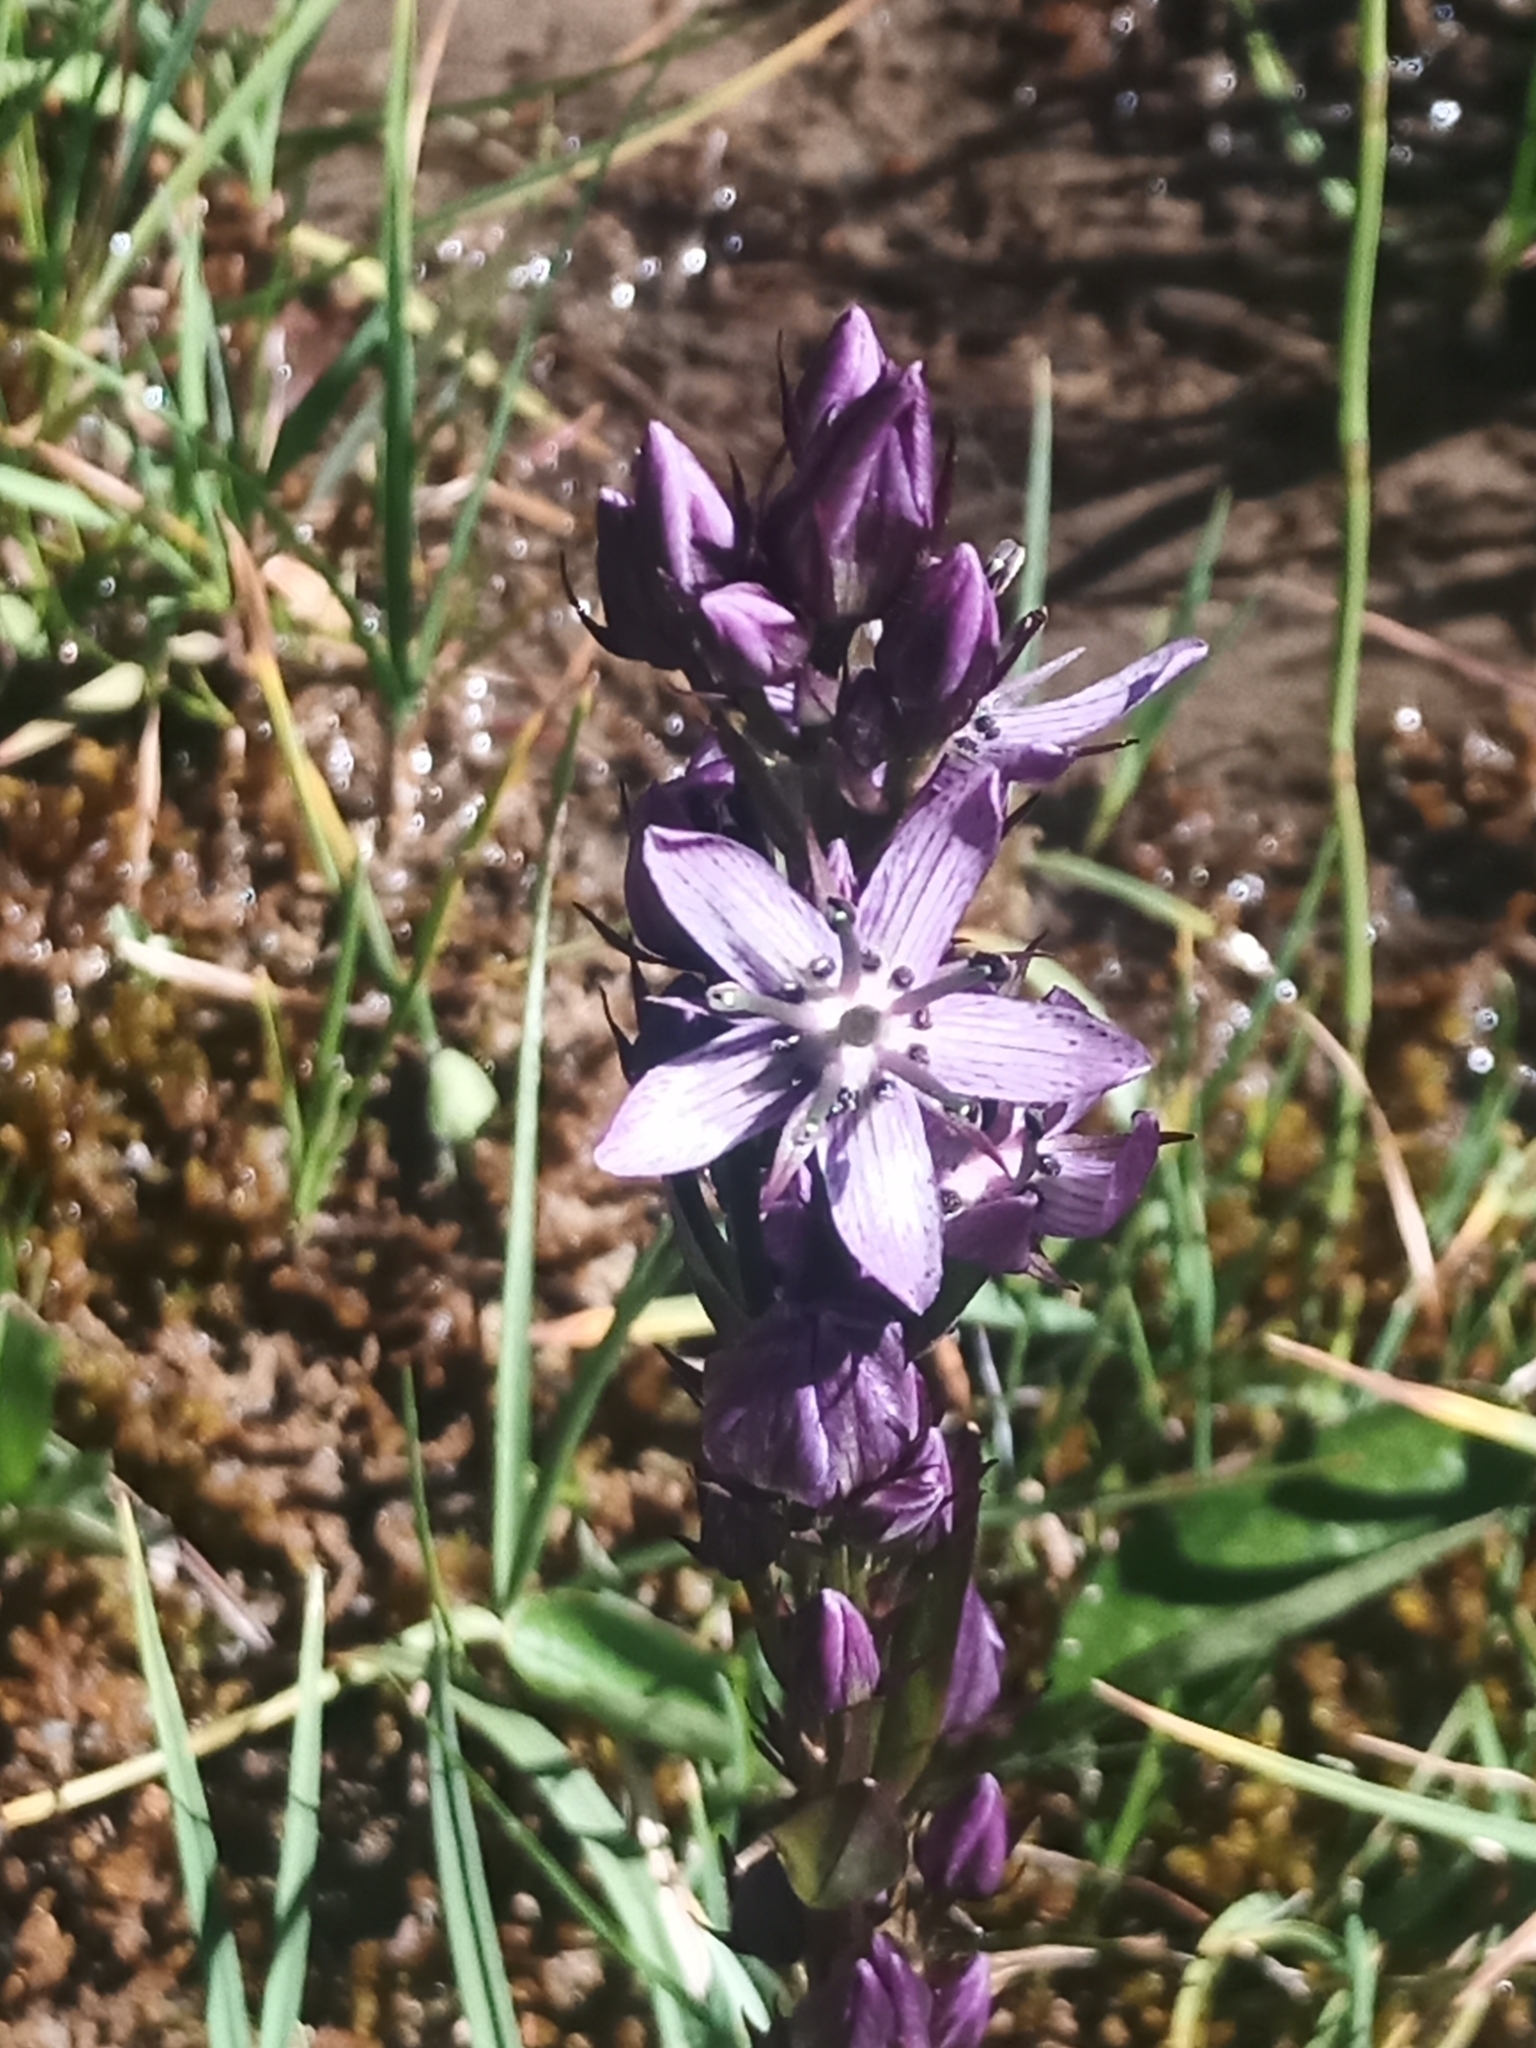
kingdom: Plantae
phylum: Tracheophyta
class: Magnoliopsida
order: Gentianales
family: Gentianaceae
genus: Swertia
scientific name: Swertia perennis
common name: Alpine bog swertia
